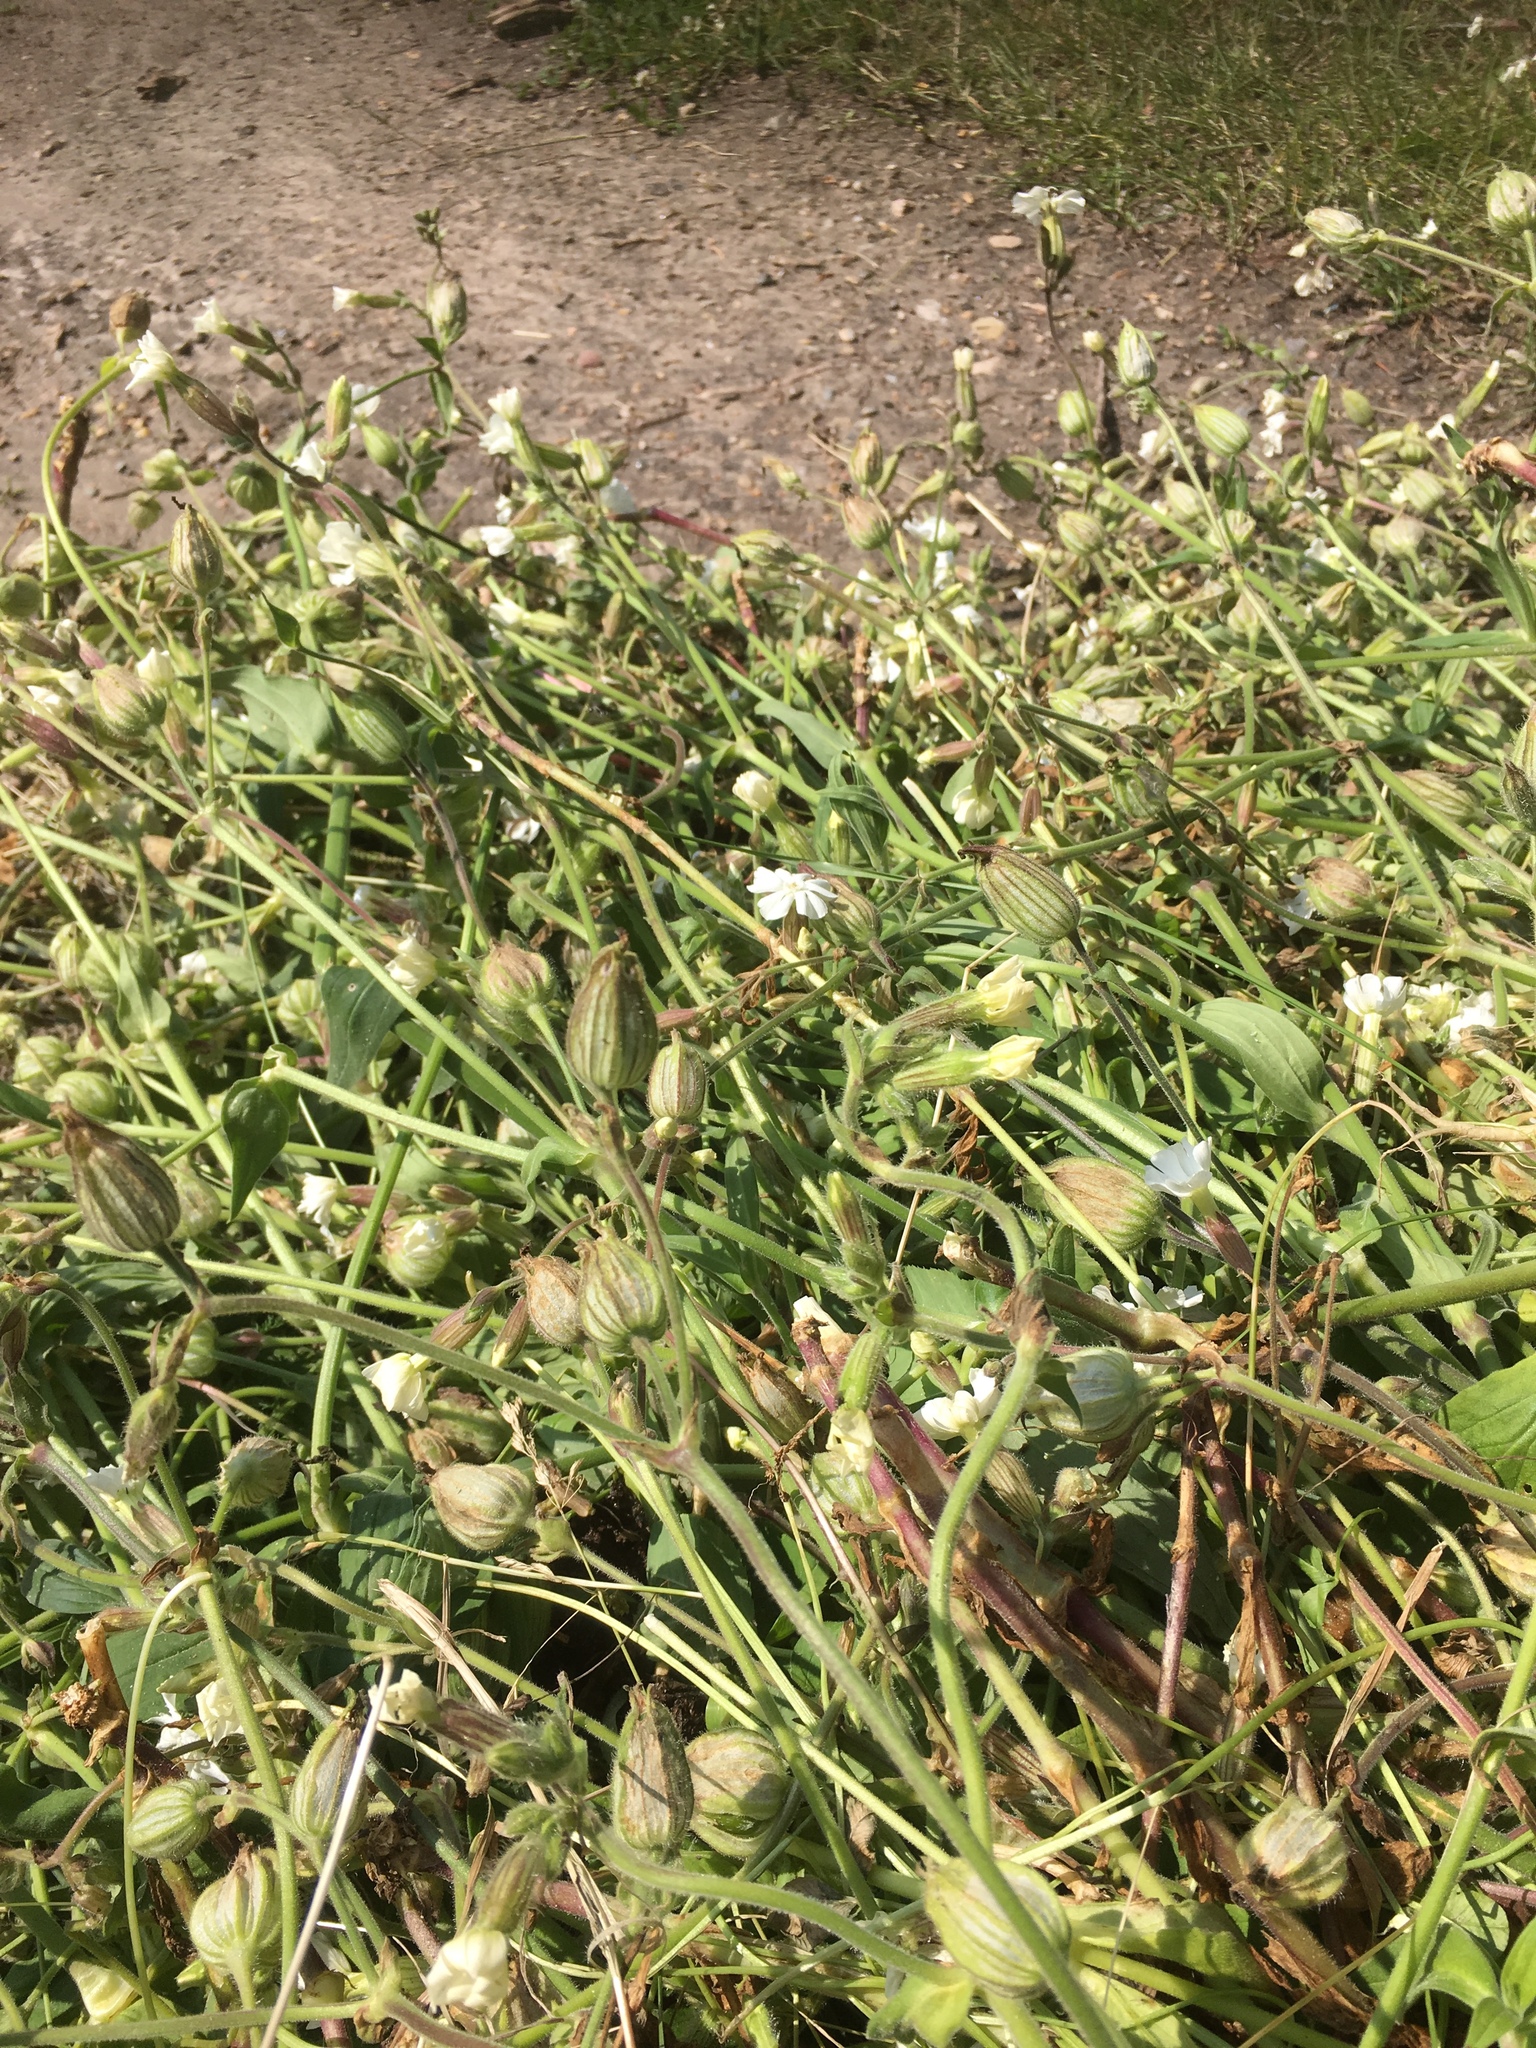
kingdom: Plantae
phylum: Tracheophyta
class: Magnoliopsida
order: Caryophyllales
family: Caryophyllaceae
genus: Silene
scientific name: Silene latifolia
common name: White campion
